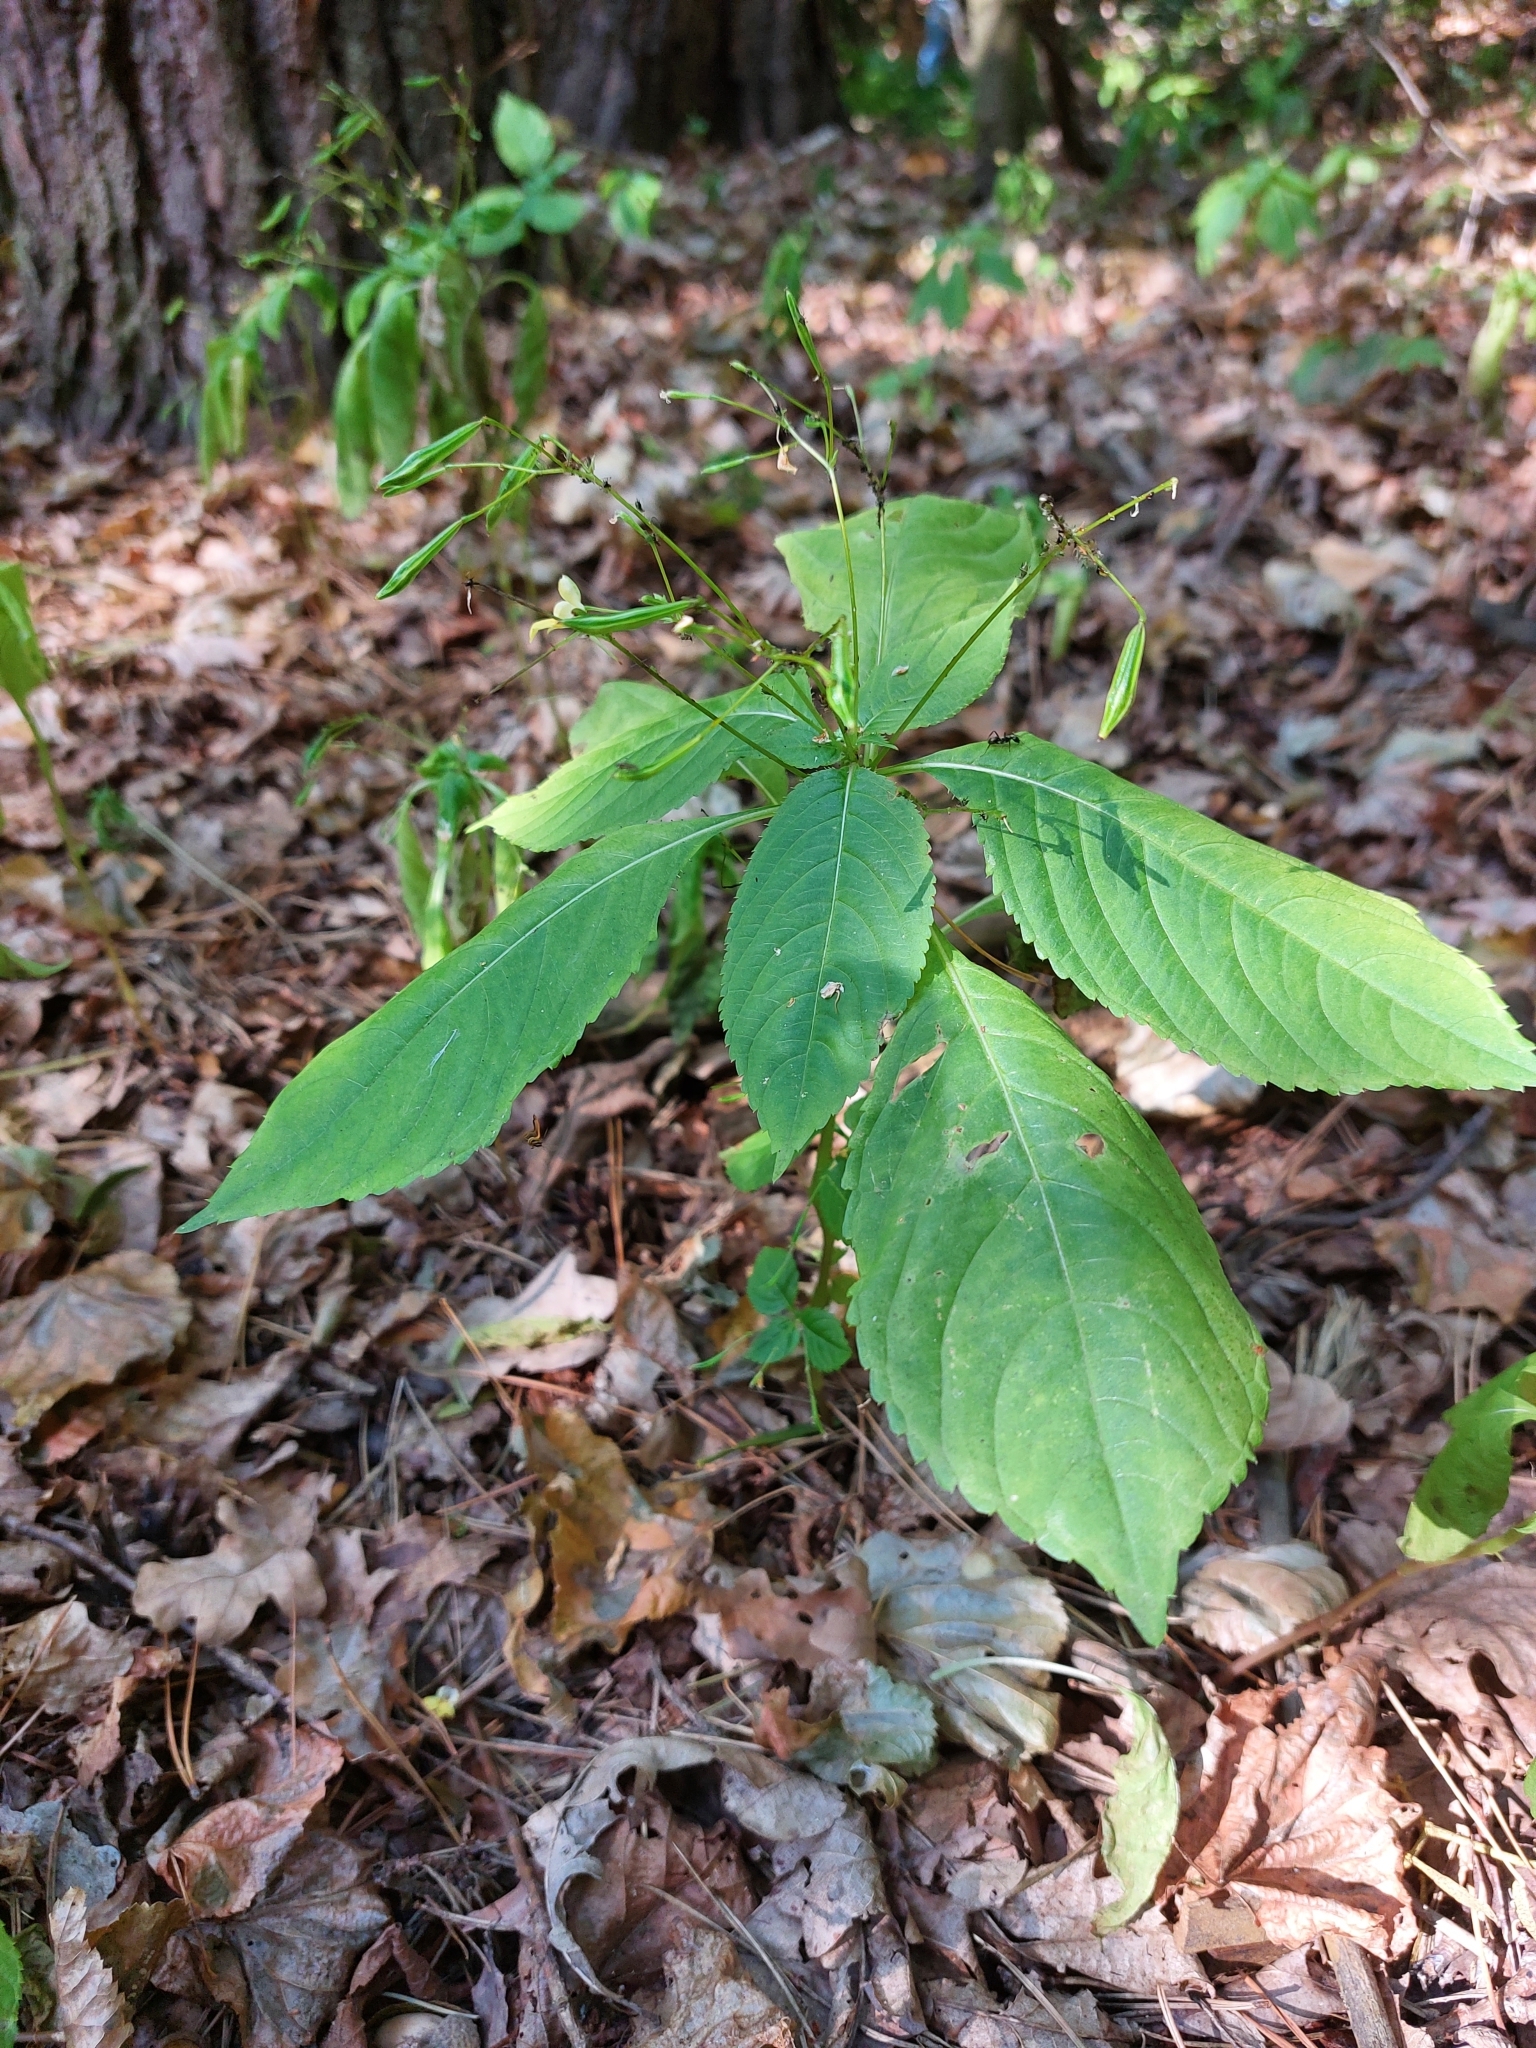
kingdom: Plantae
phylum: Tracheophyta
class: Magnoliopsida
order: Ericales
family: Balsaminaceae
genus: Impatiens
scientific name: Impatiens parviflora
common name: Small balsam
